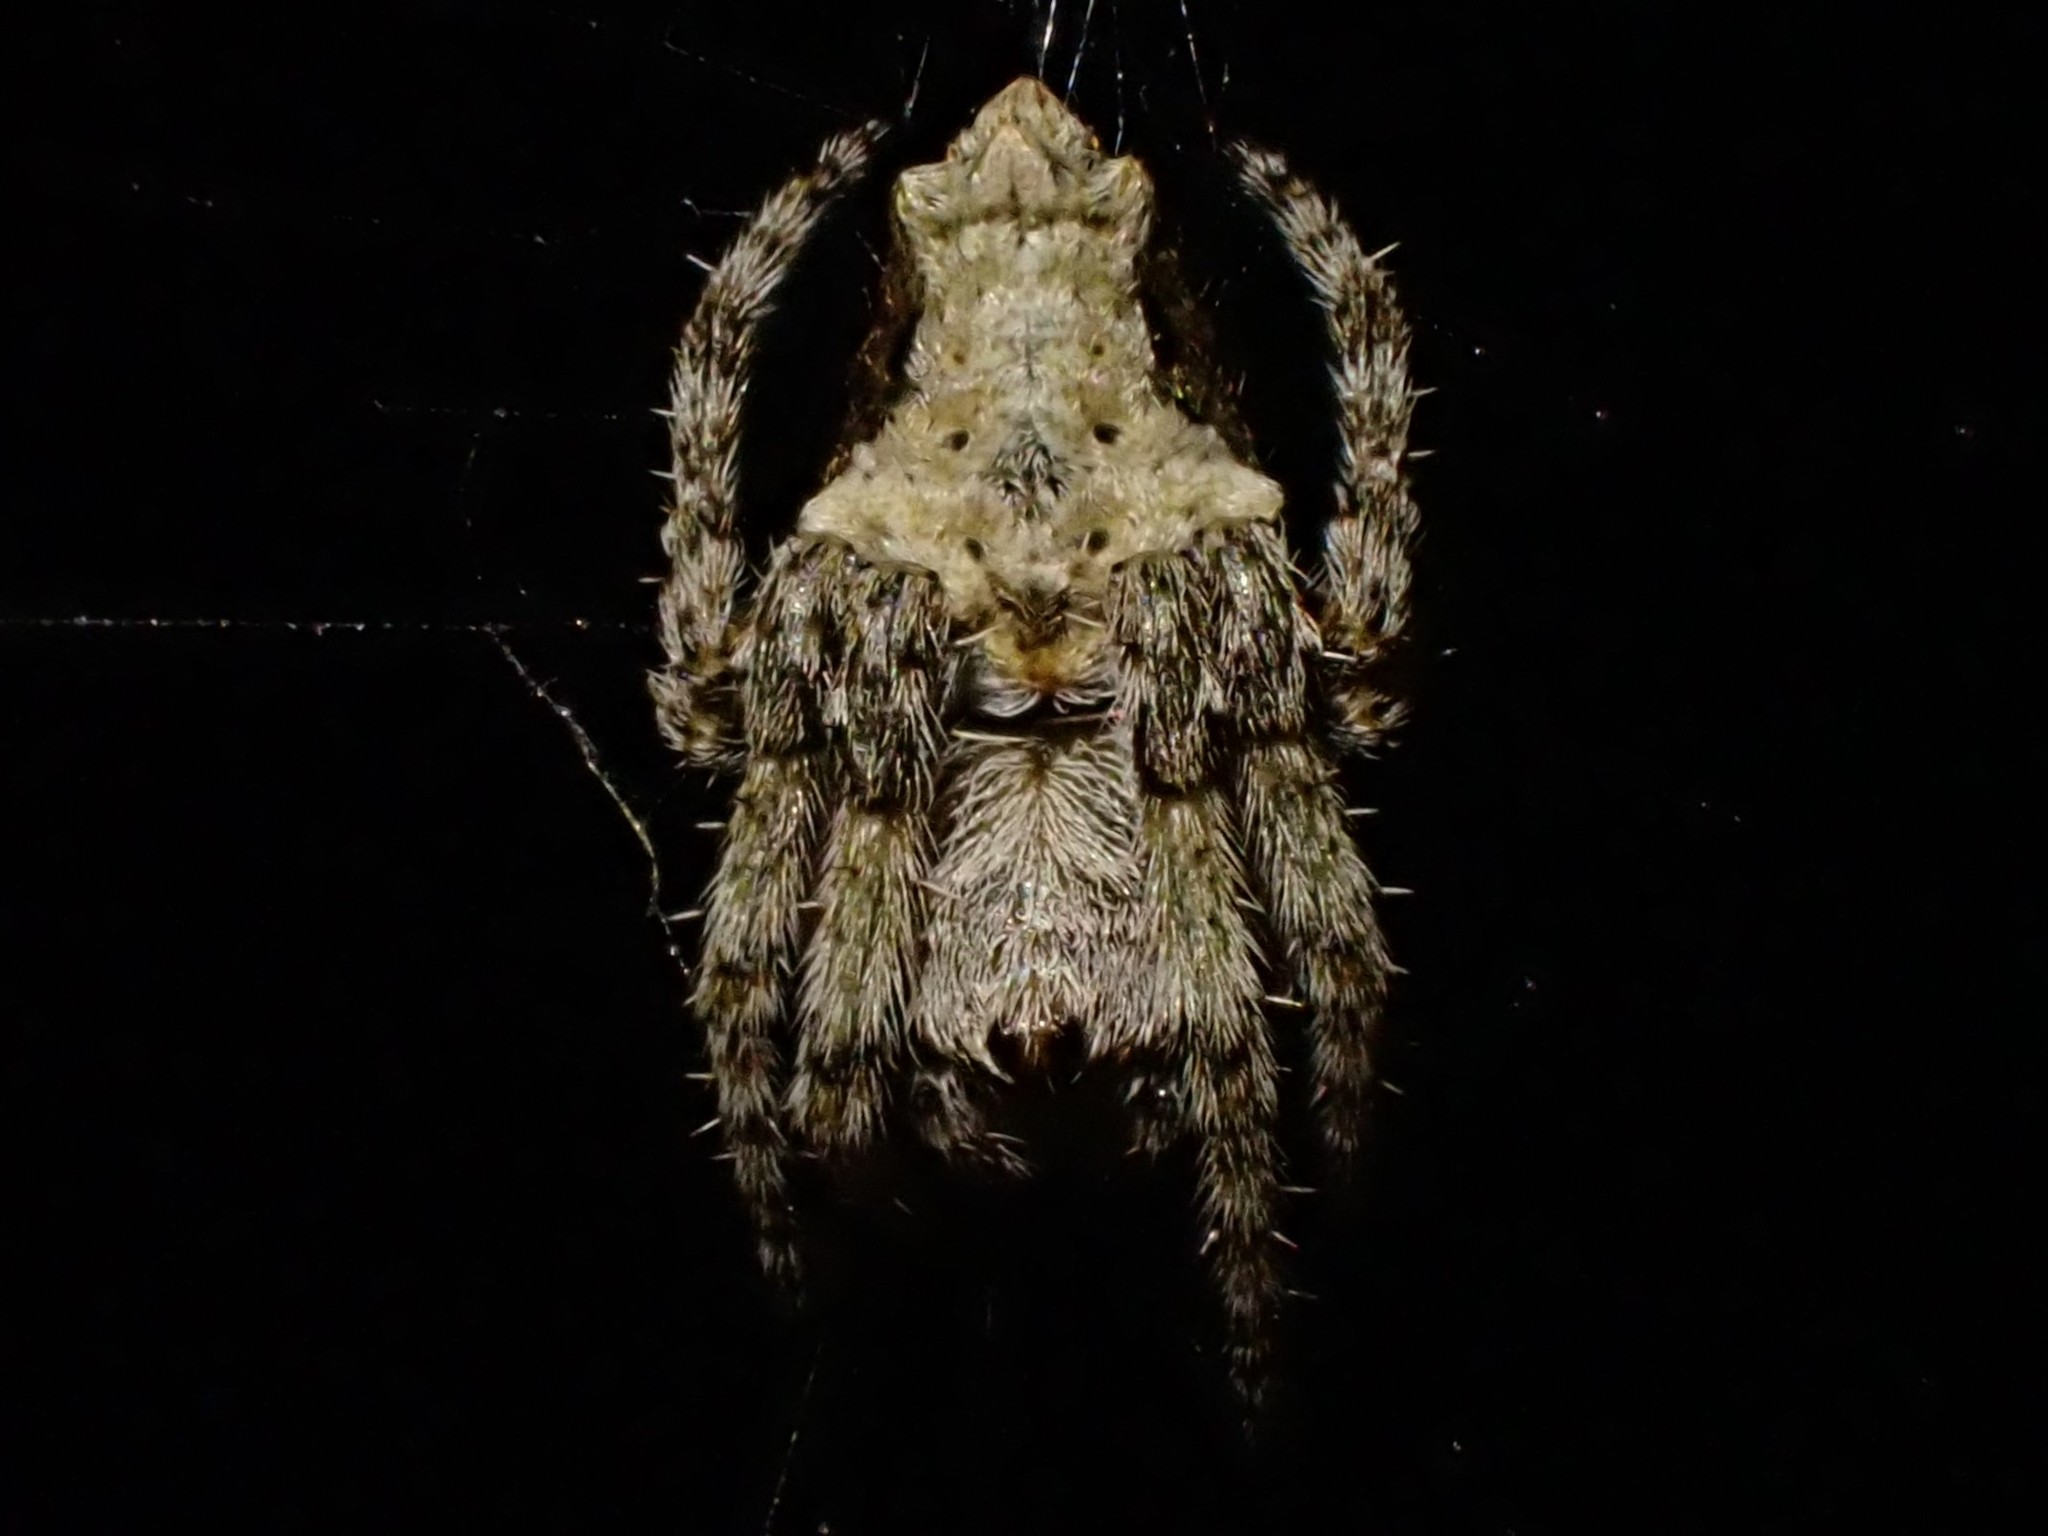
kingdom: Animalia
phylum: Arthropoda
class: Arachnida
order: Araneae
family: Araneidae
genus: Eriophora
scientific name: Eriophora pustulosa
